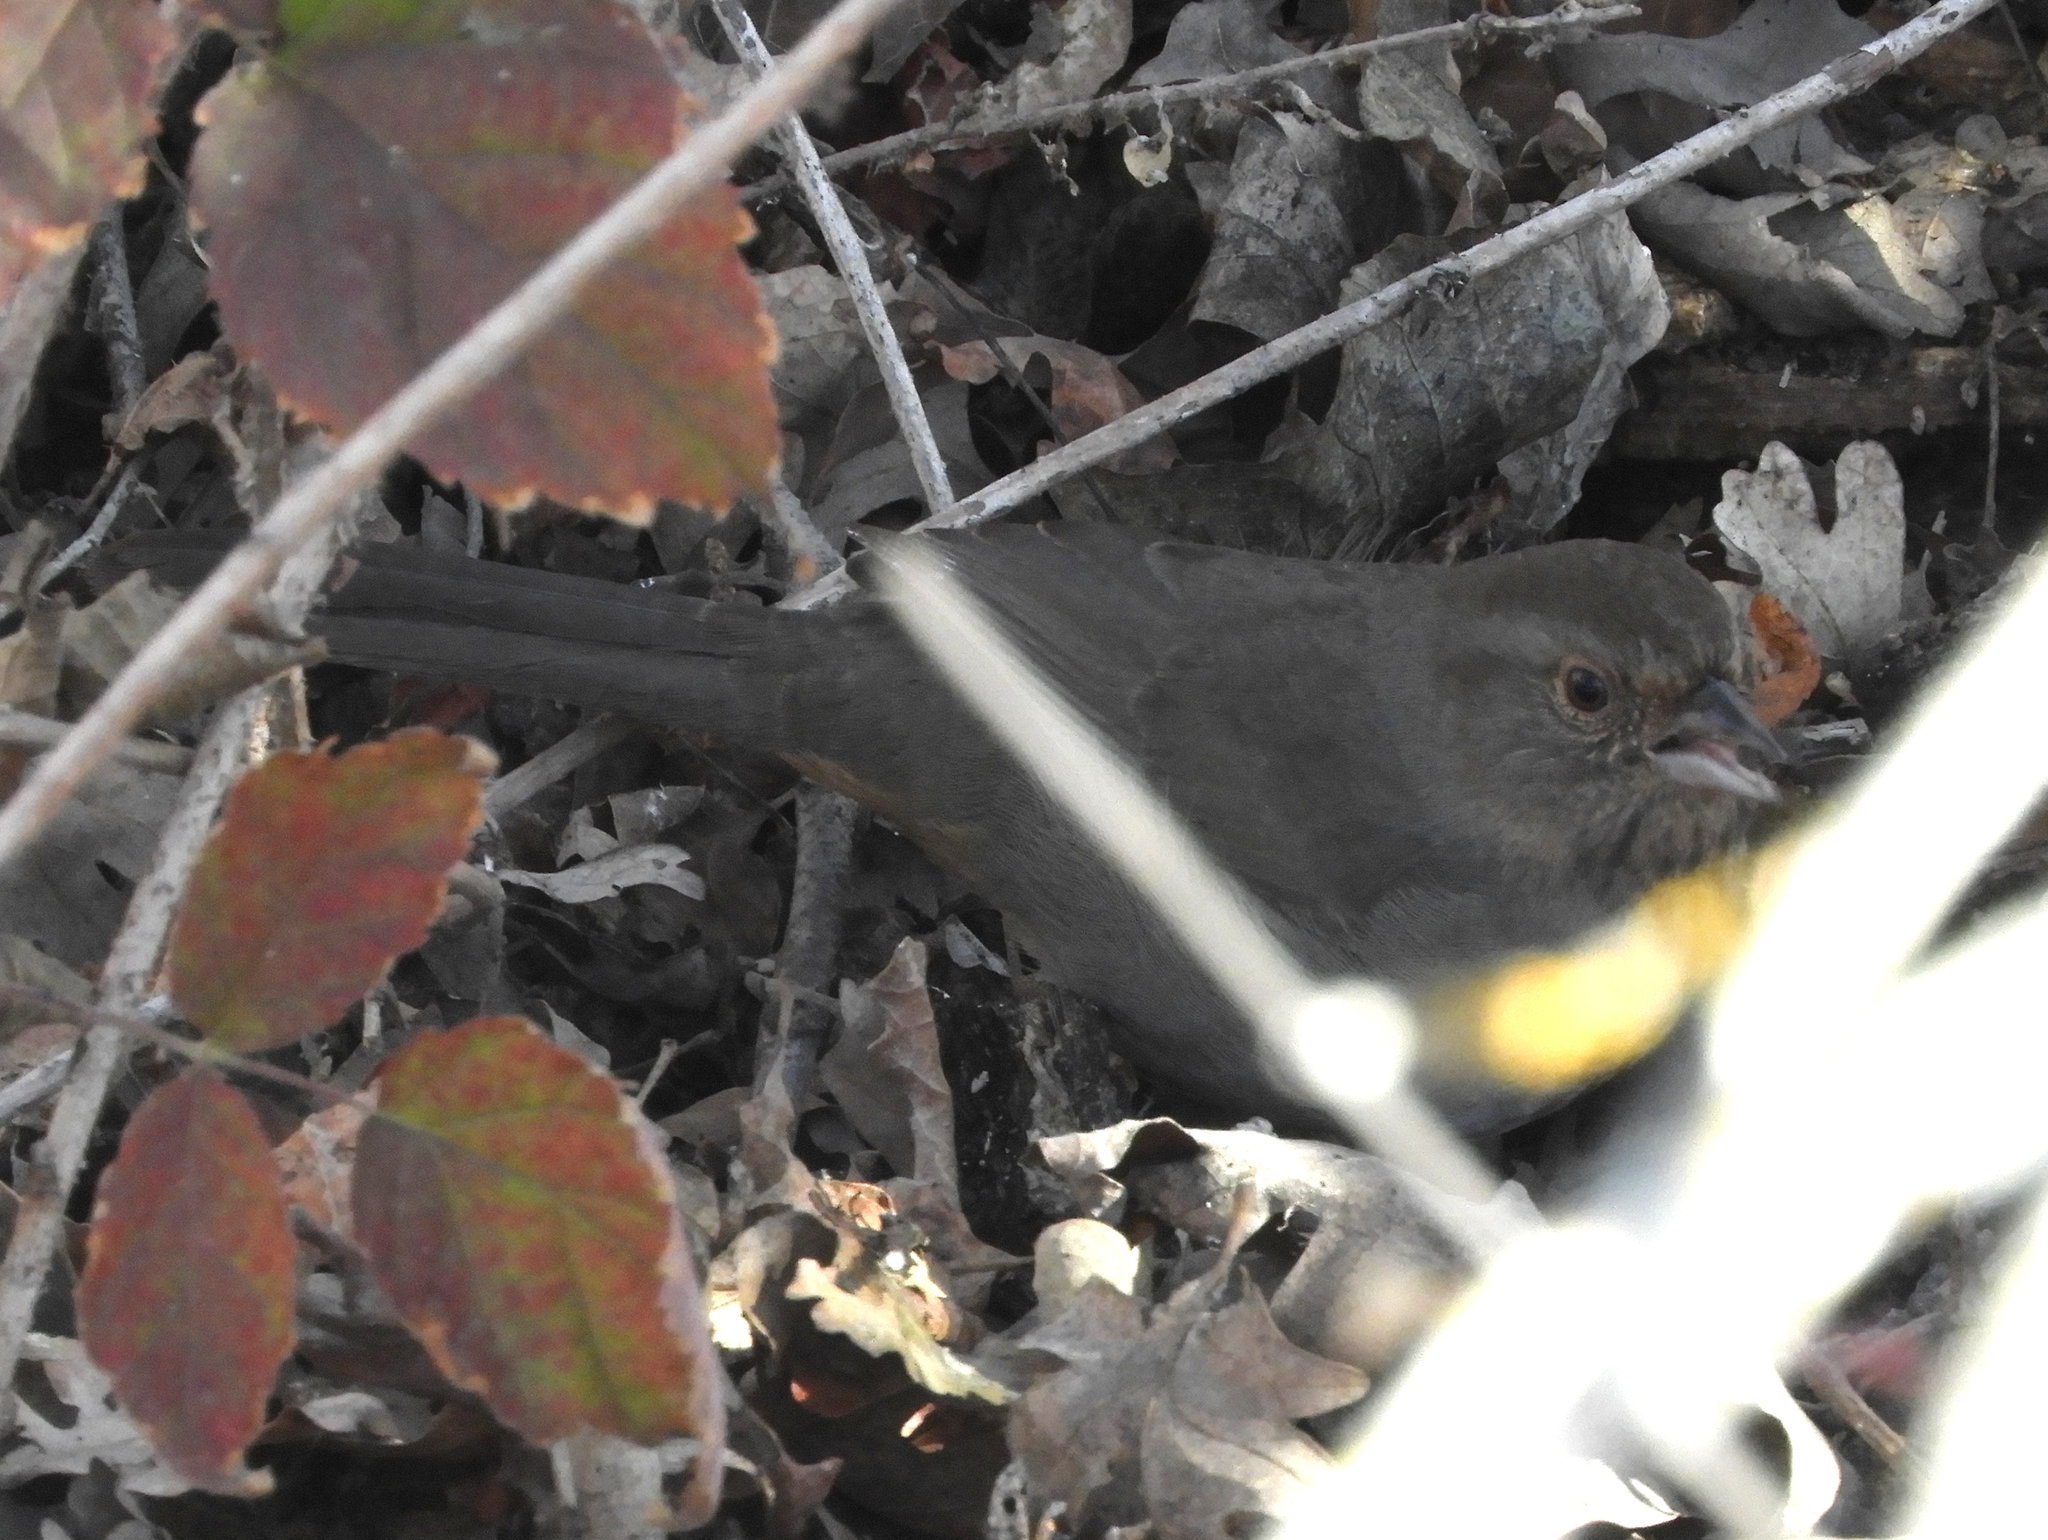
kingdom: Animalia
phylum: Chordata
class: Aves
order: Passeriformes
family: Passerellidae
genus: Melozone
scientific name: Melozone crissalis
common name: California towhee
